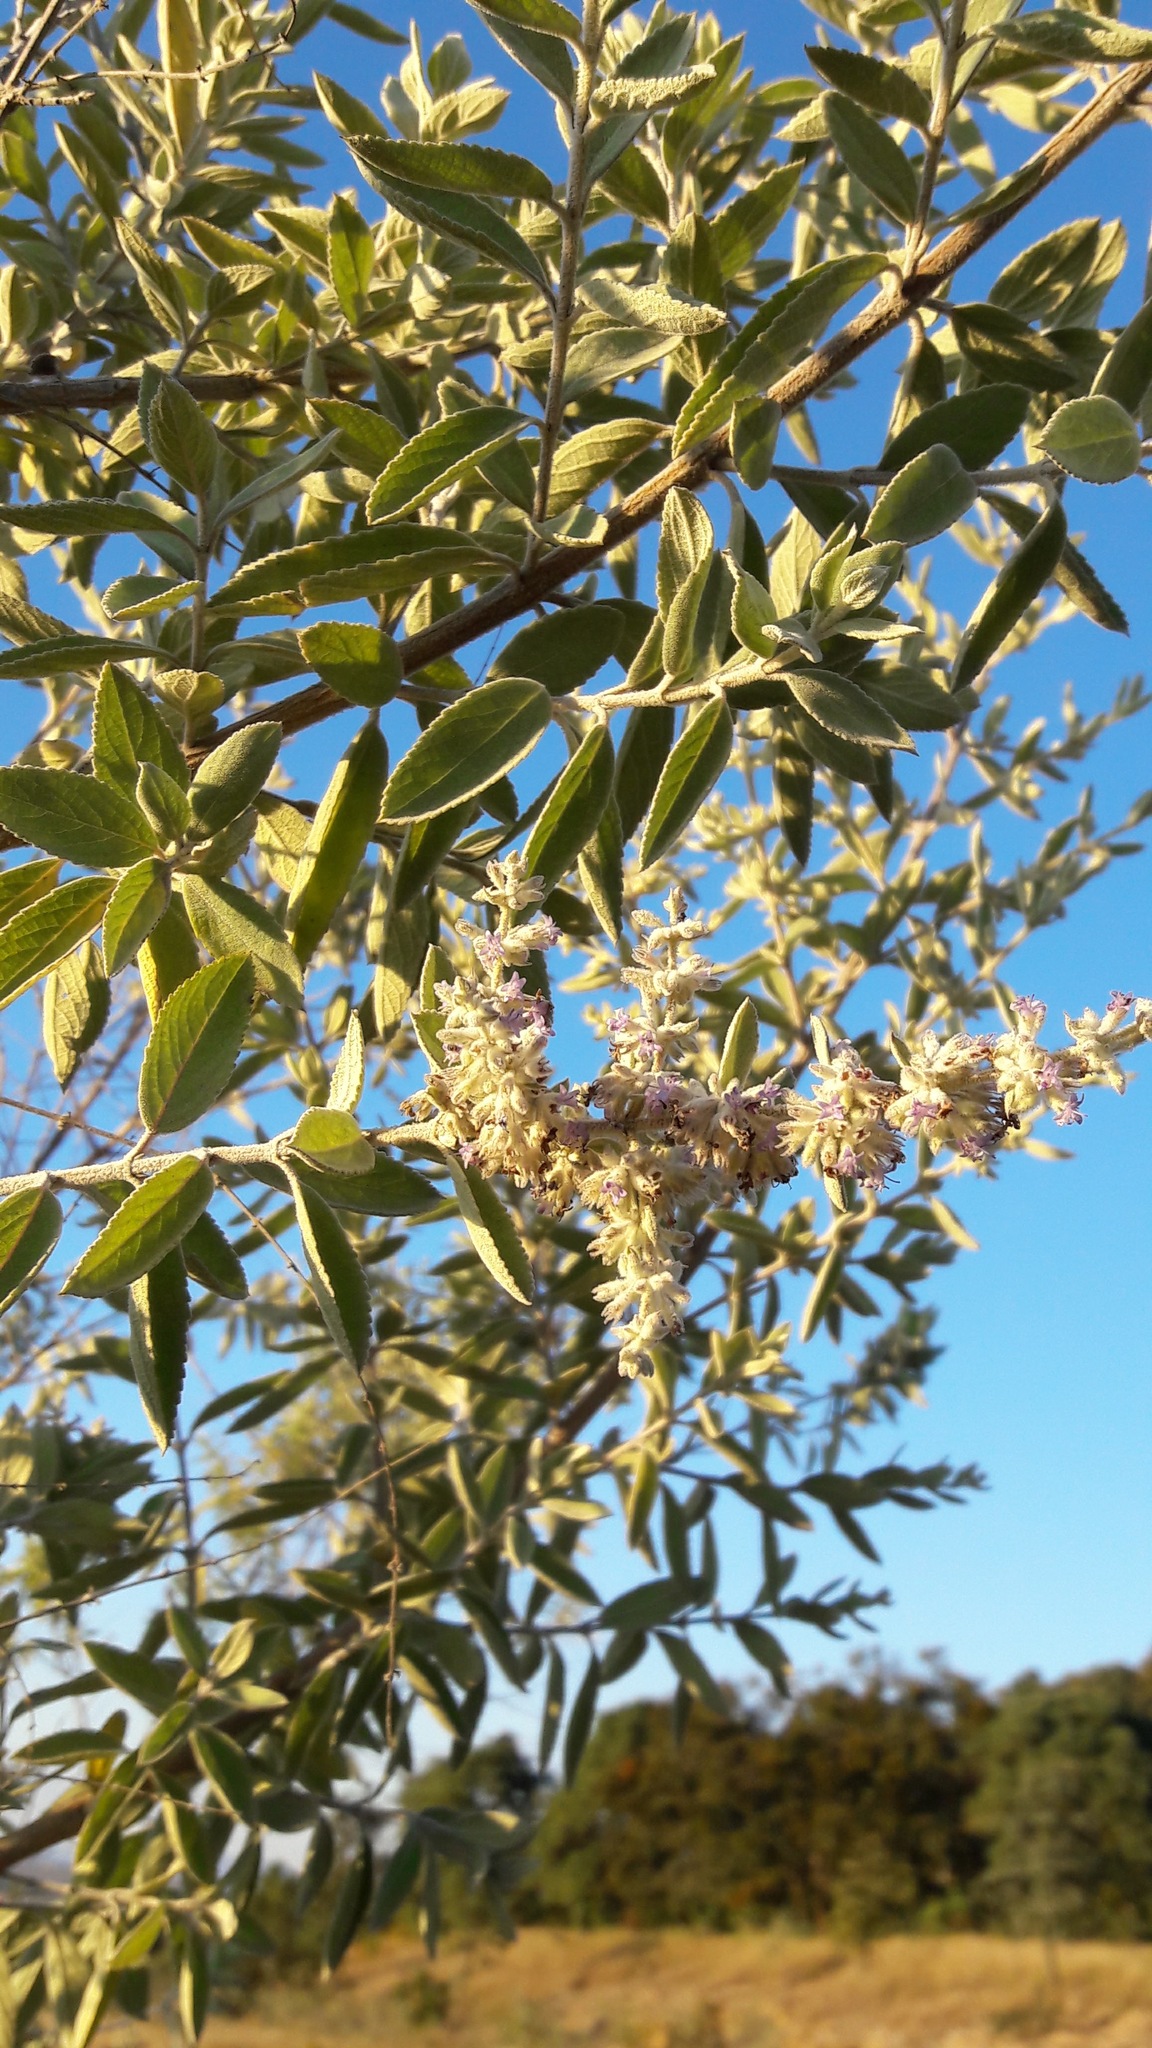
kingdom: Plantae
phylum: Tracheophyta
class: Magnoliopsida
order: Lamiales
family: Lamiaceae
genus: Condea
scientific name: Condea albida
